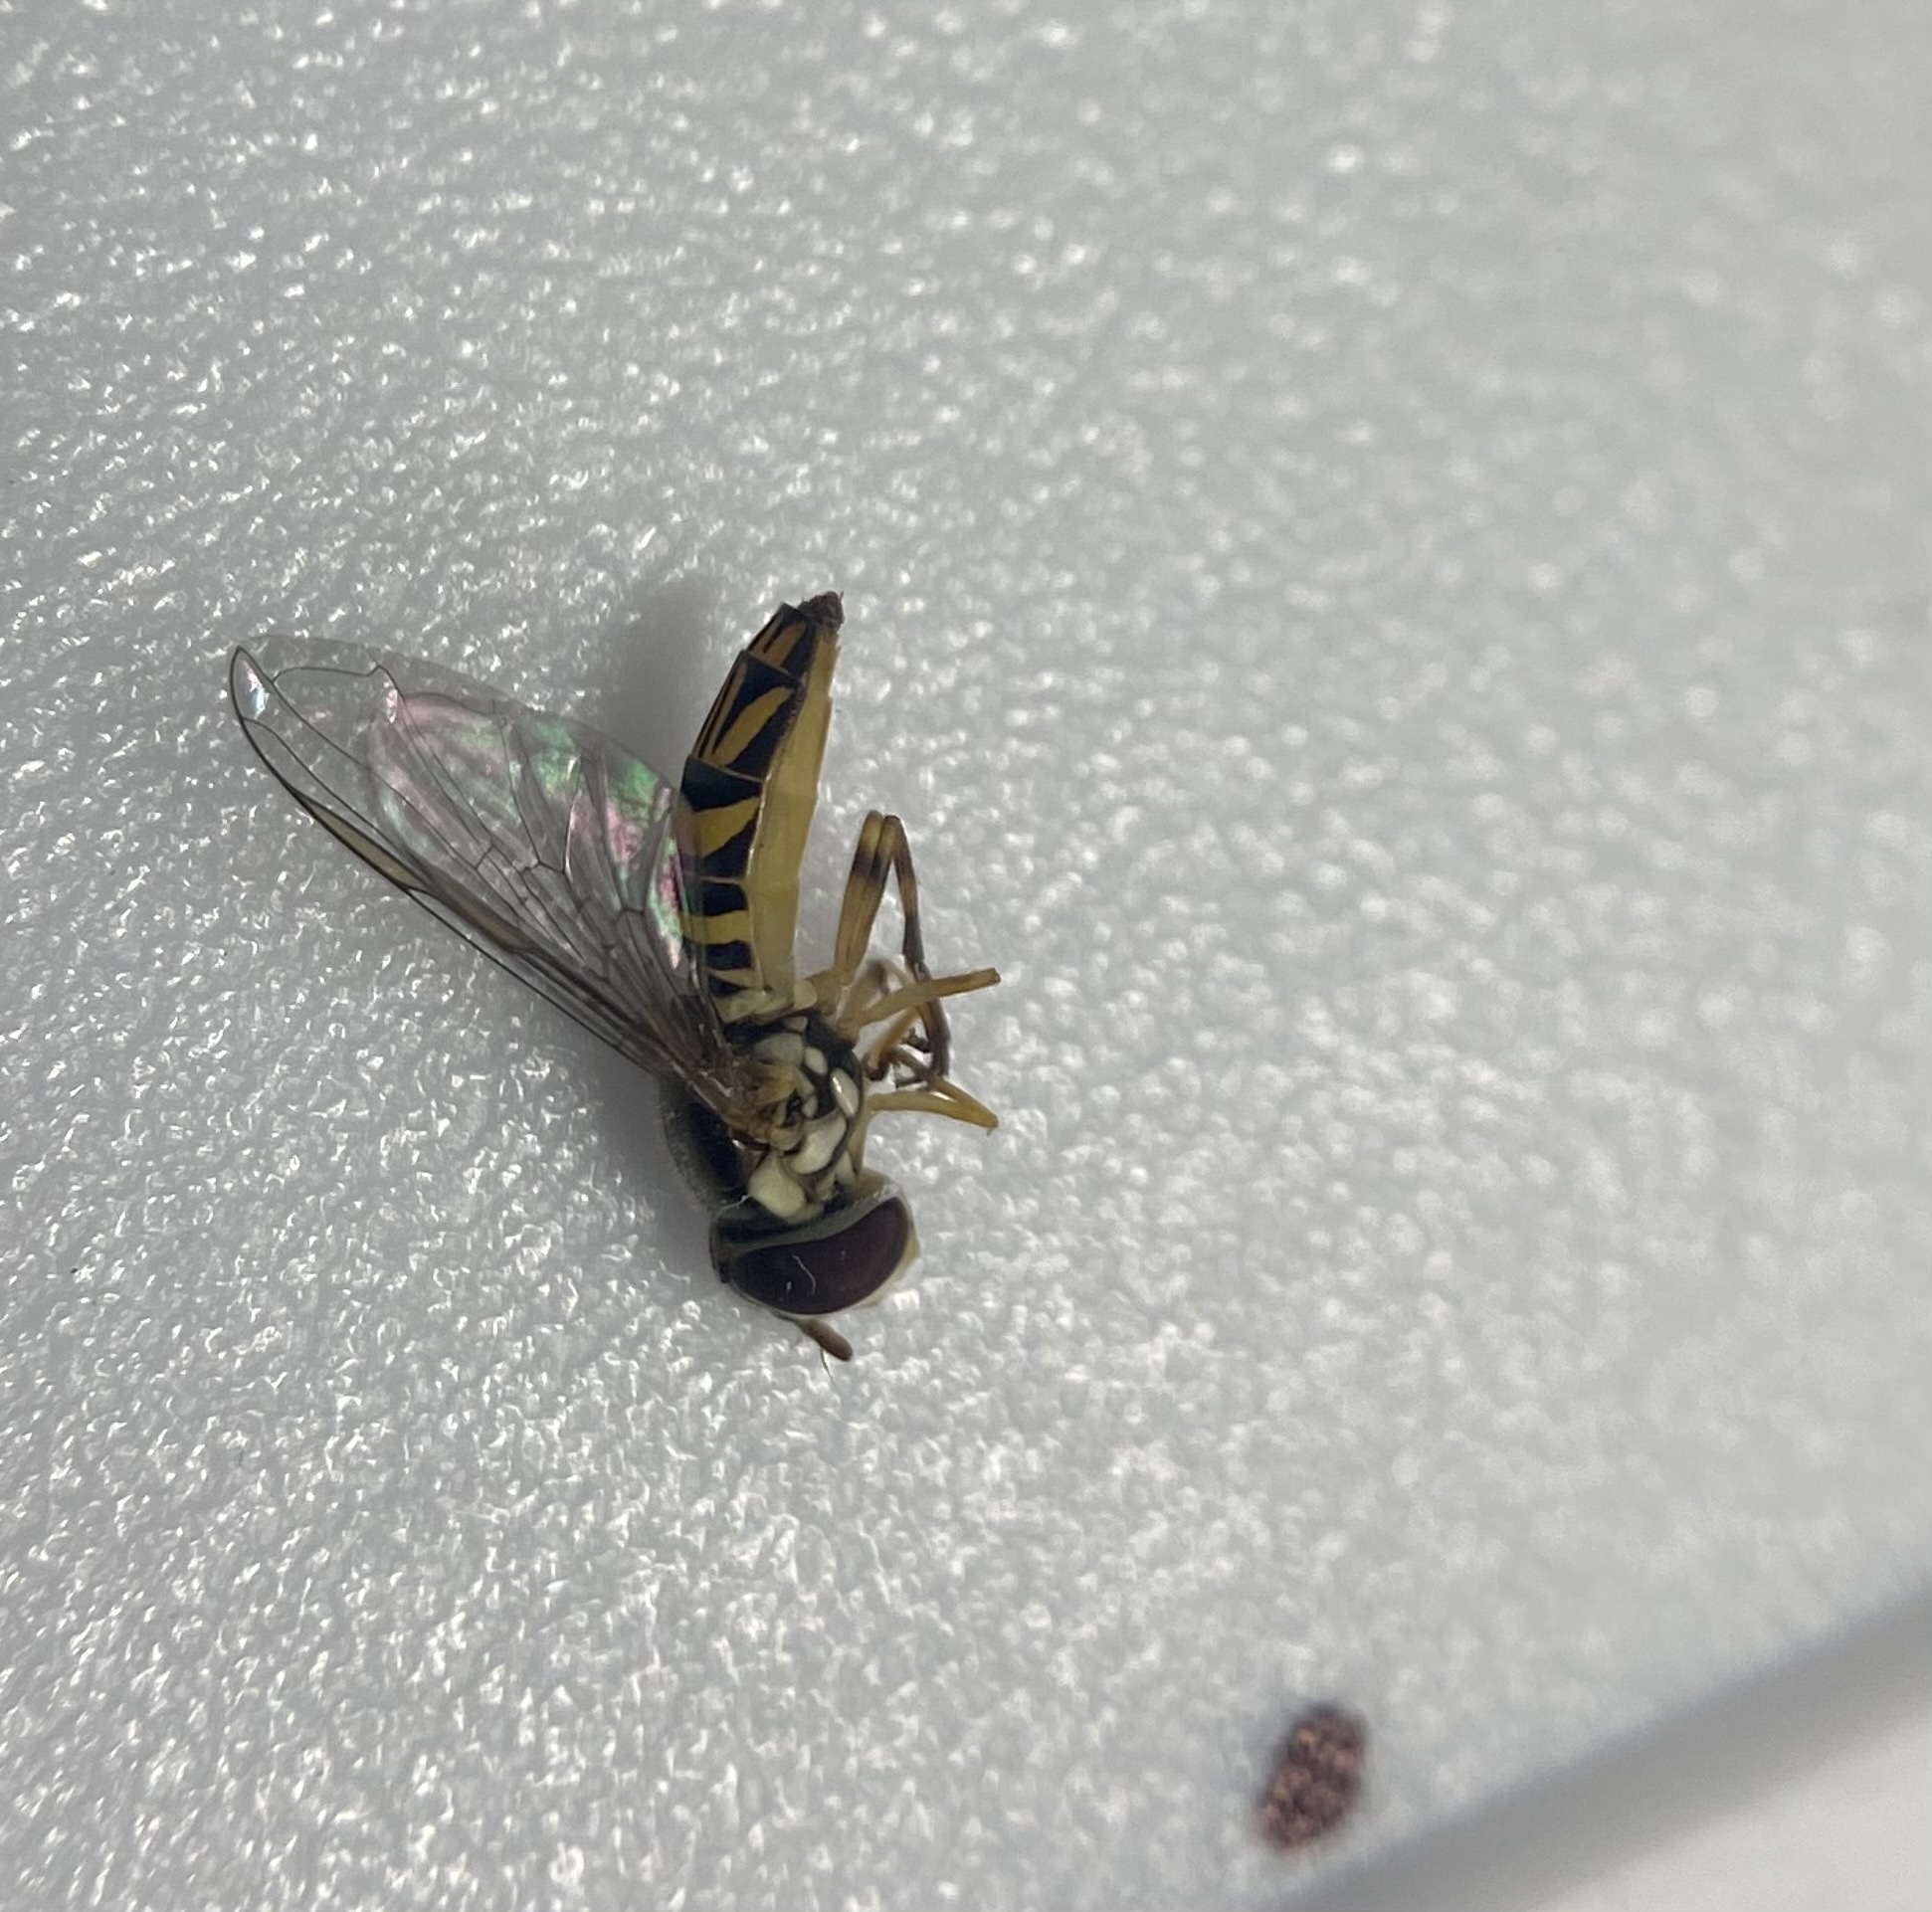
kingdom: Animalia
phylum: Arthropoda
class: Insecta
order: Diptera
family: Syrphidae
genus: Allograpta
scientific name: Allograpta obliqua
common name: Common oblique syrphid
